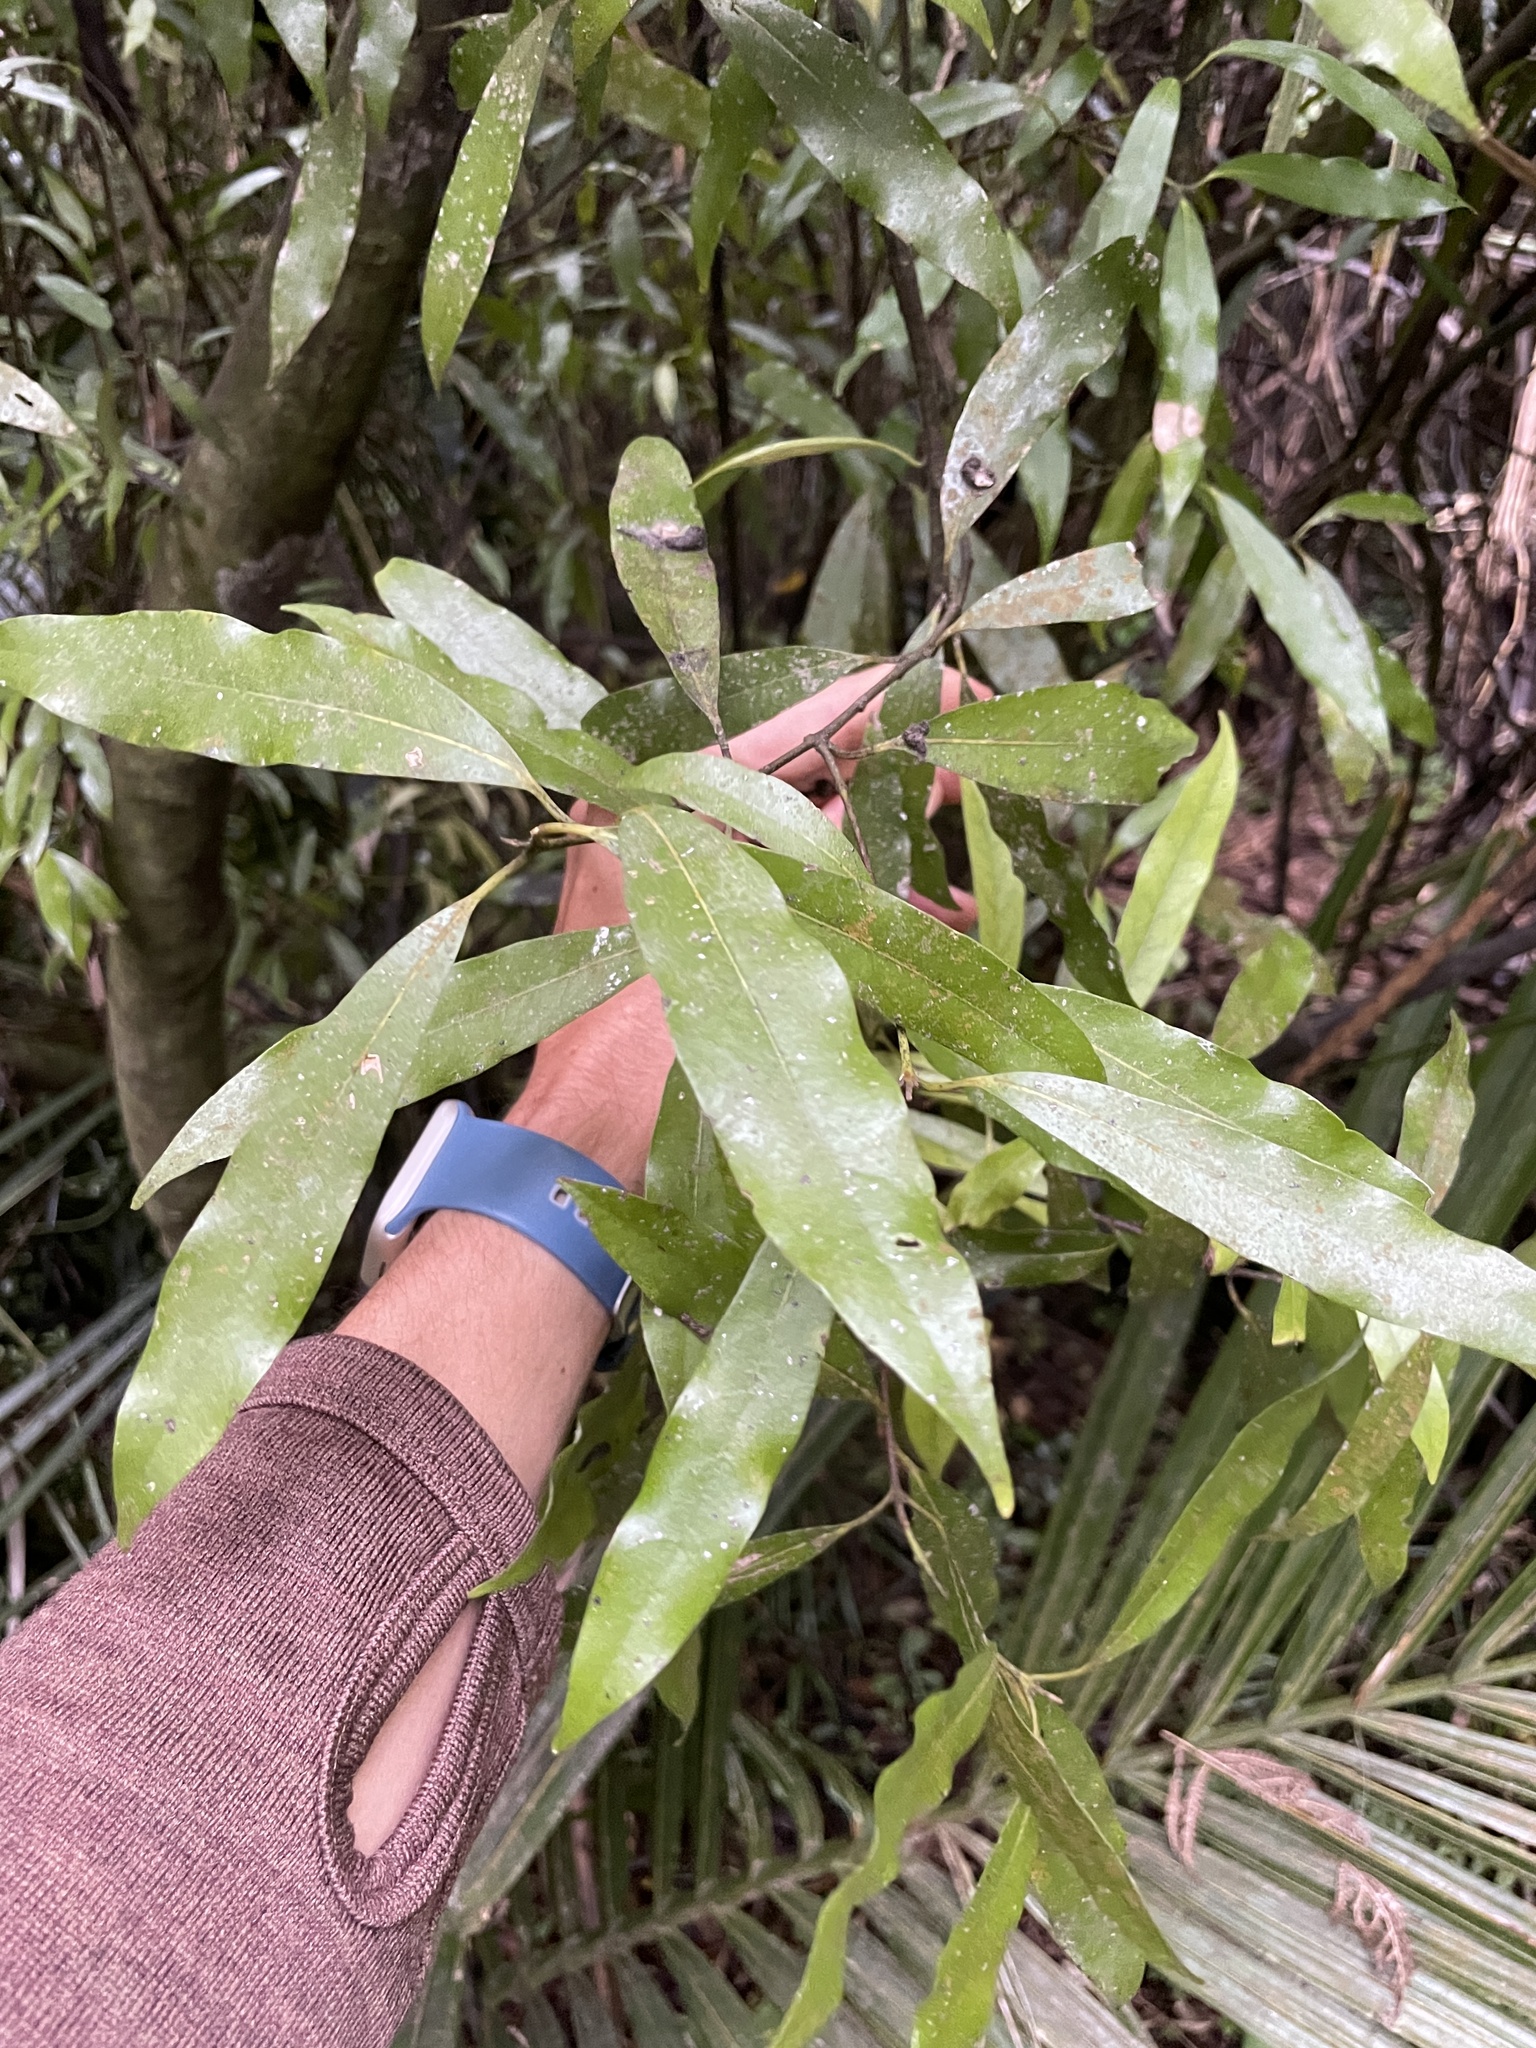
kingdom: Plantae
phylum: Tracheophyta
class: Magnoliopsida
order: Laurales
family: Lauraceae
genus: Beilschmiedia
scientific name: Beilschmiedia tawa
